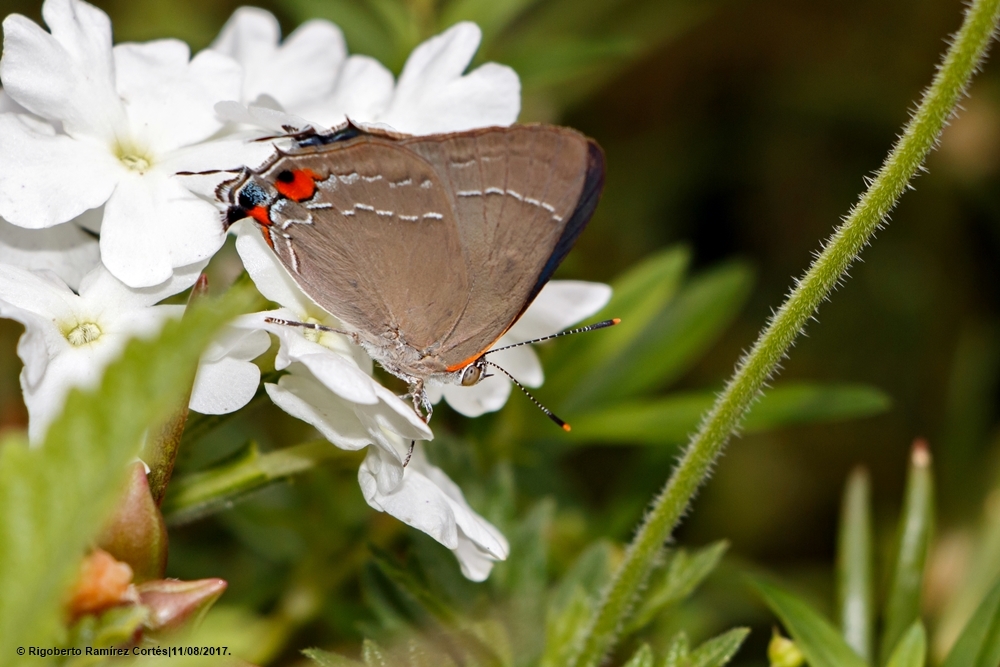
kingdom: Animalia
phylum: Arthropoda
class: Insecta
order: Lepidoptera
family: Lycaenidae
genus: Rekoa
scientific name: Rekoa
